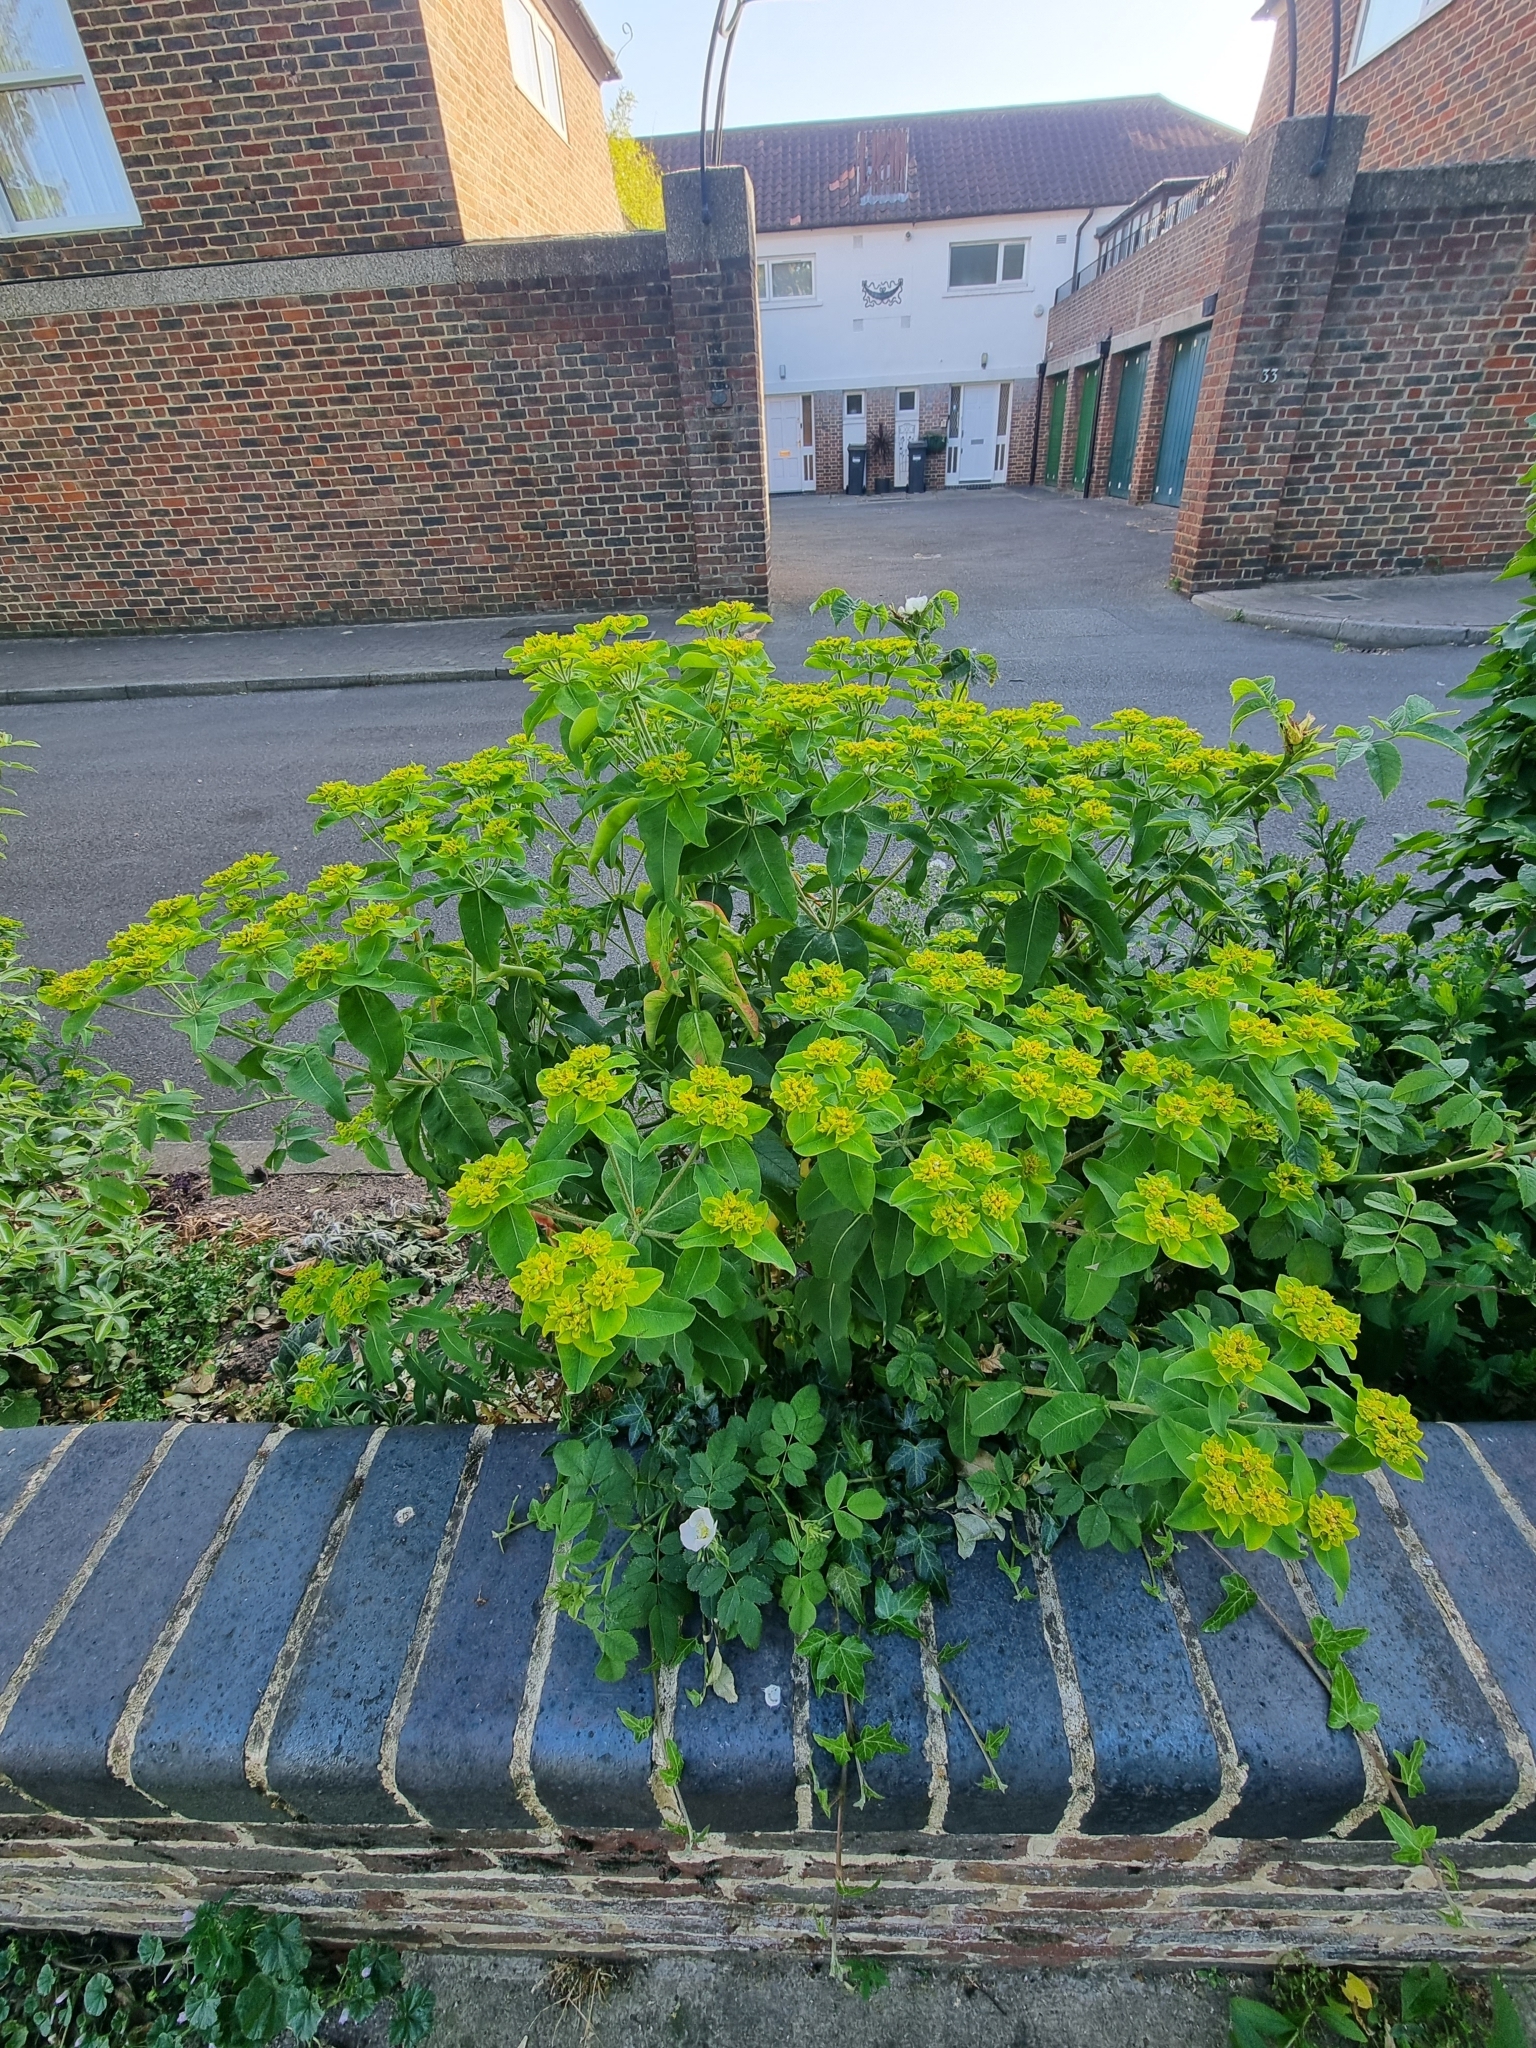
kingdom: Plantae
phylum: Tracheophyta
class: Magnoliopsida
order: Malpighiales
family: Euphorbiaceae
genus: Euphorbia
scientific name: Euphorbia oblongata
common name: Balkan spurge
